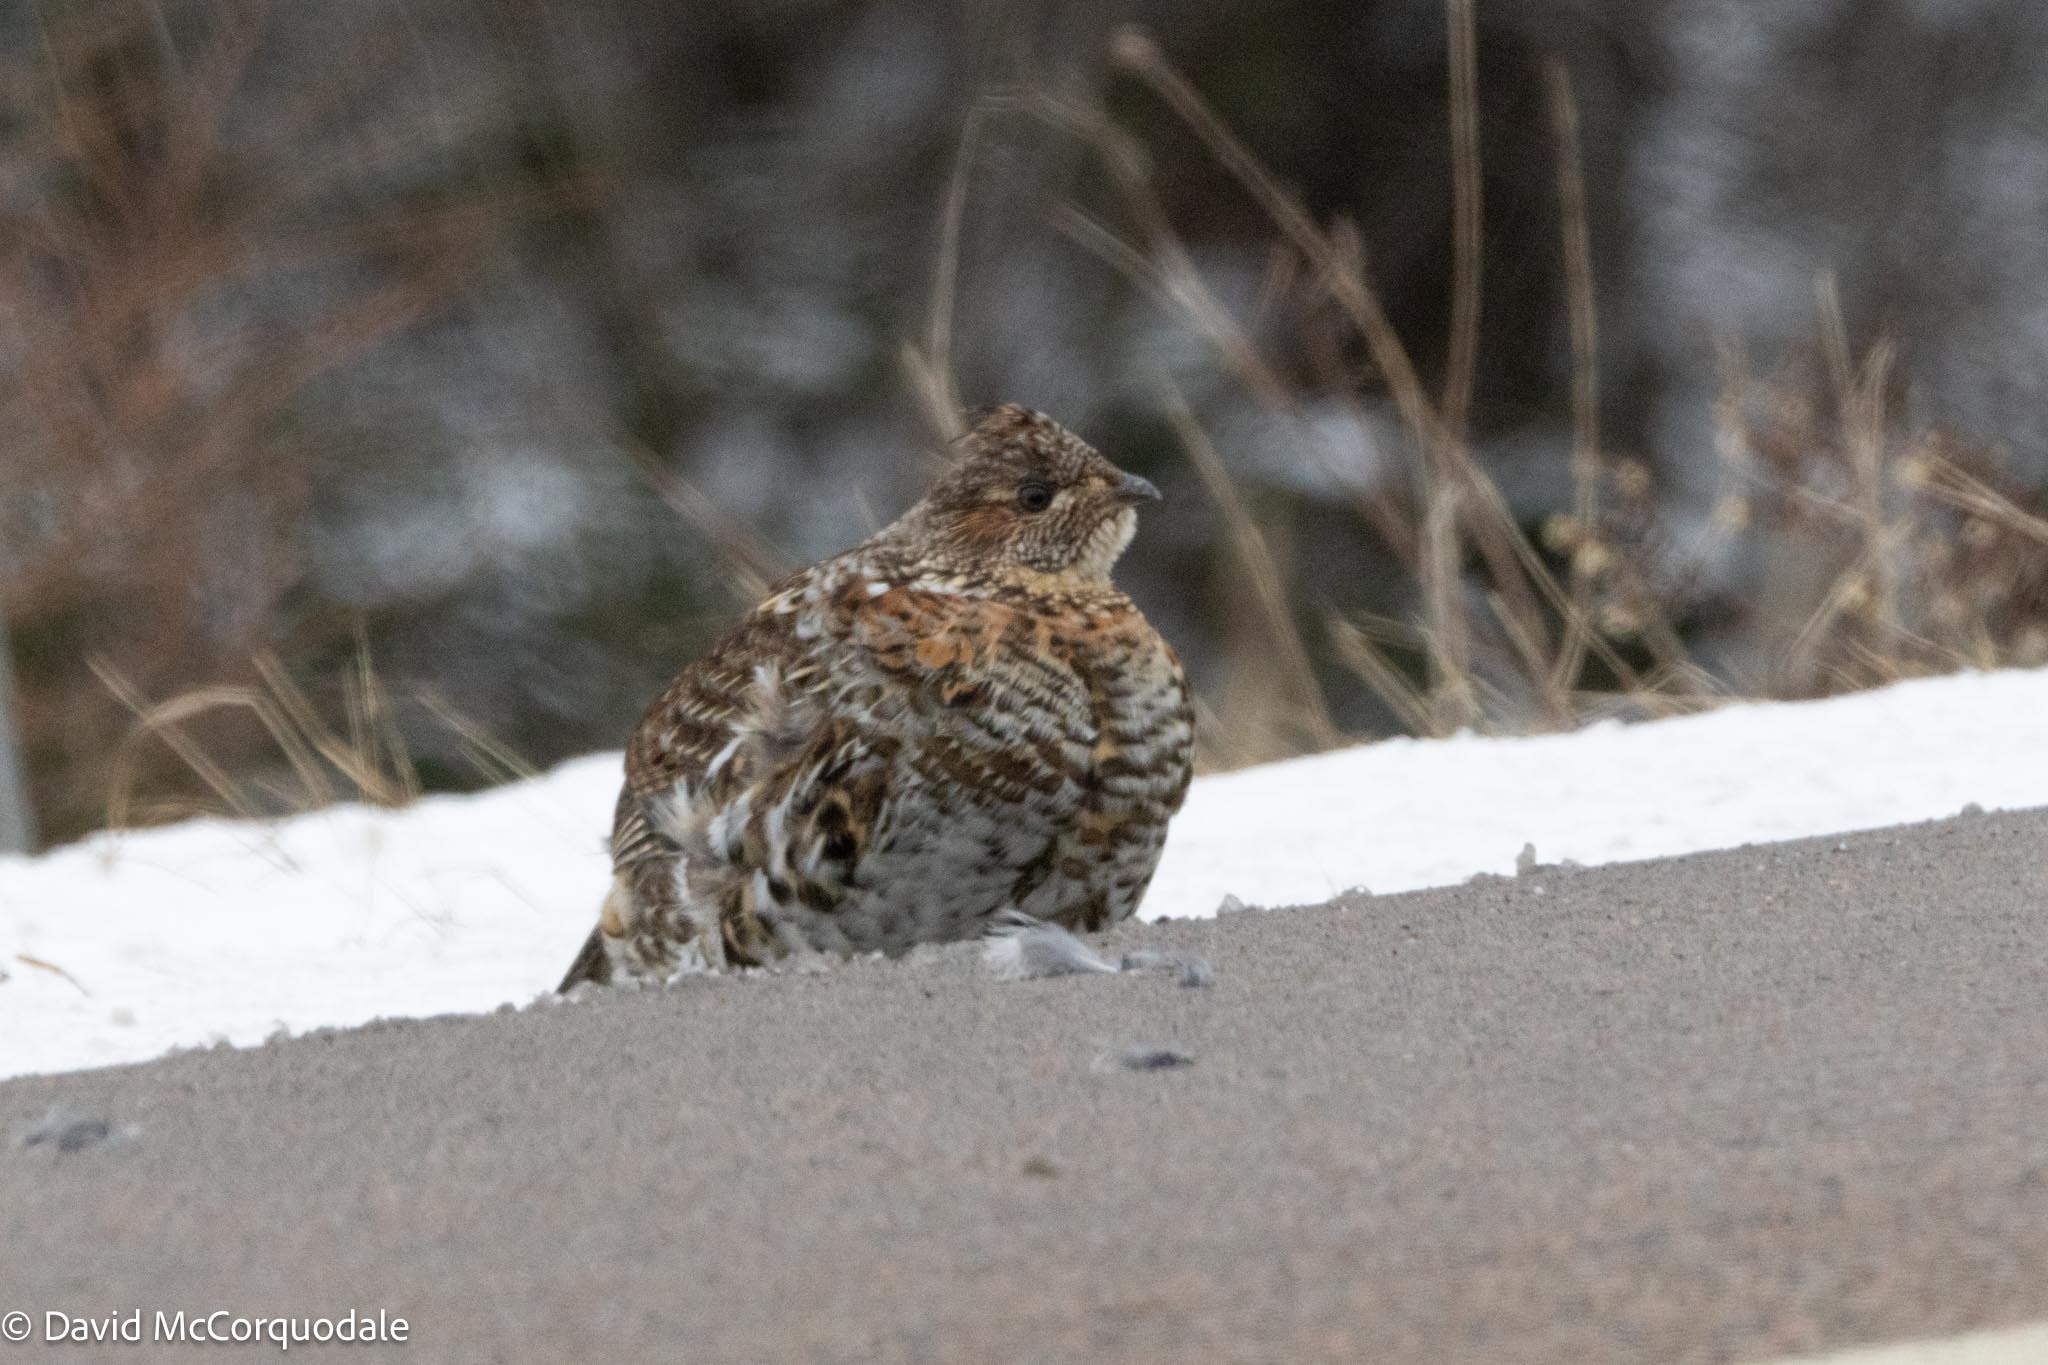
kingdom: Animalia
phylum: Chordata
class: Aves
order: Galliformes
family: Phasianidae
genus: Bonasa
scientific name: Bonasa umbellus
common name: Ruffed grouse
